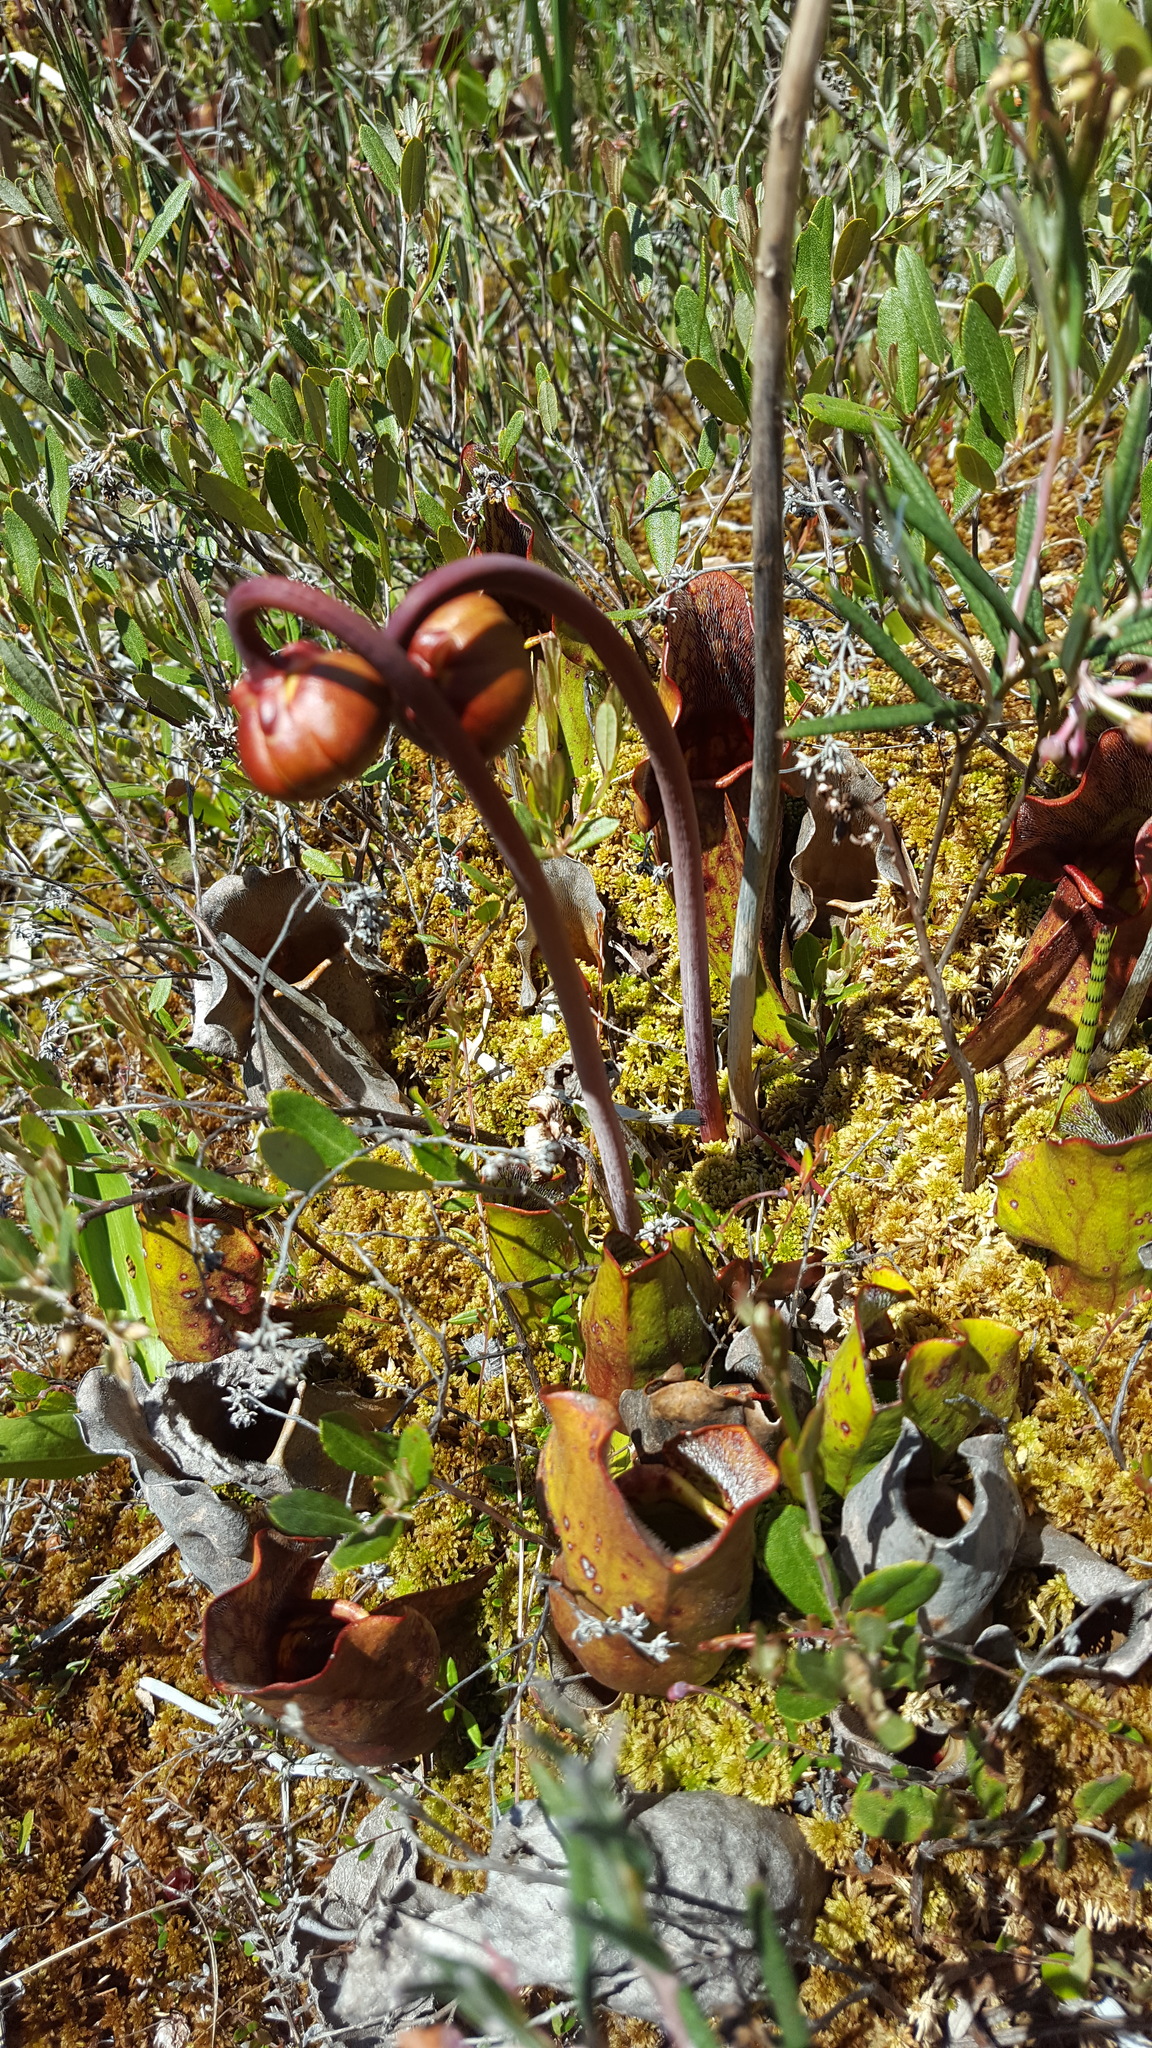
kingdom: Plantae
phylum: Tracheophyta
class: Magnoliopsida
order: Ericales
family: Sarraceniaceae
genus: Sarracenia
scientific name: Sarracenia purpurea
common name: Pitcherplant
